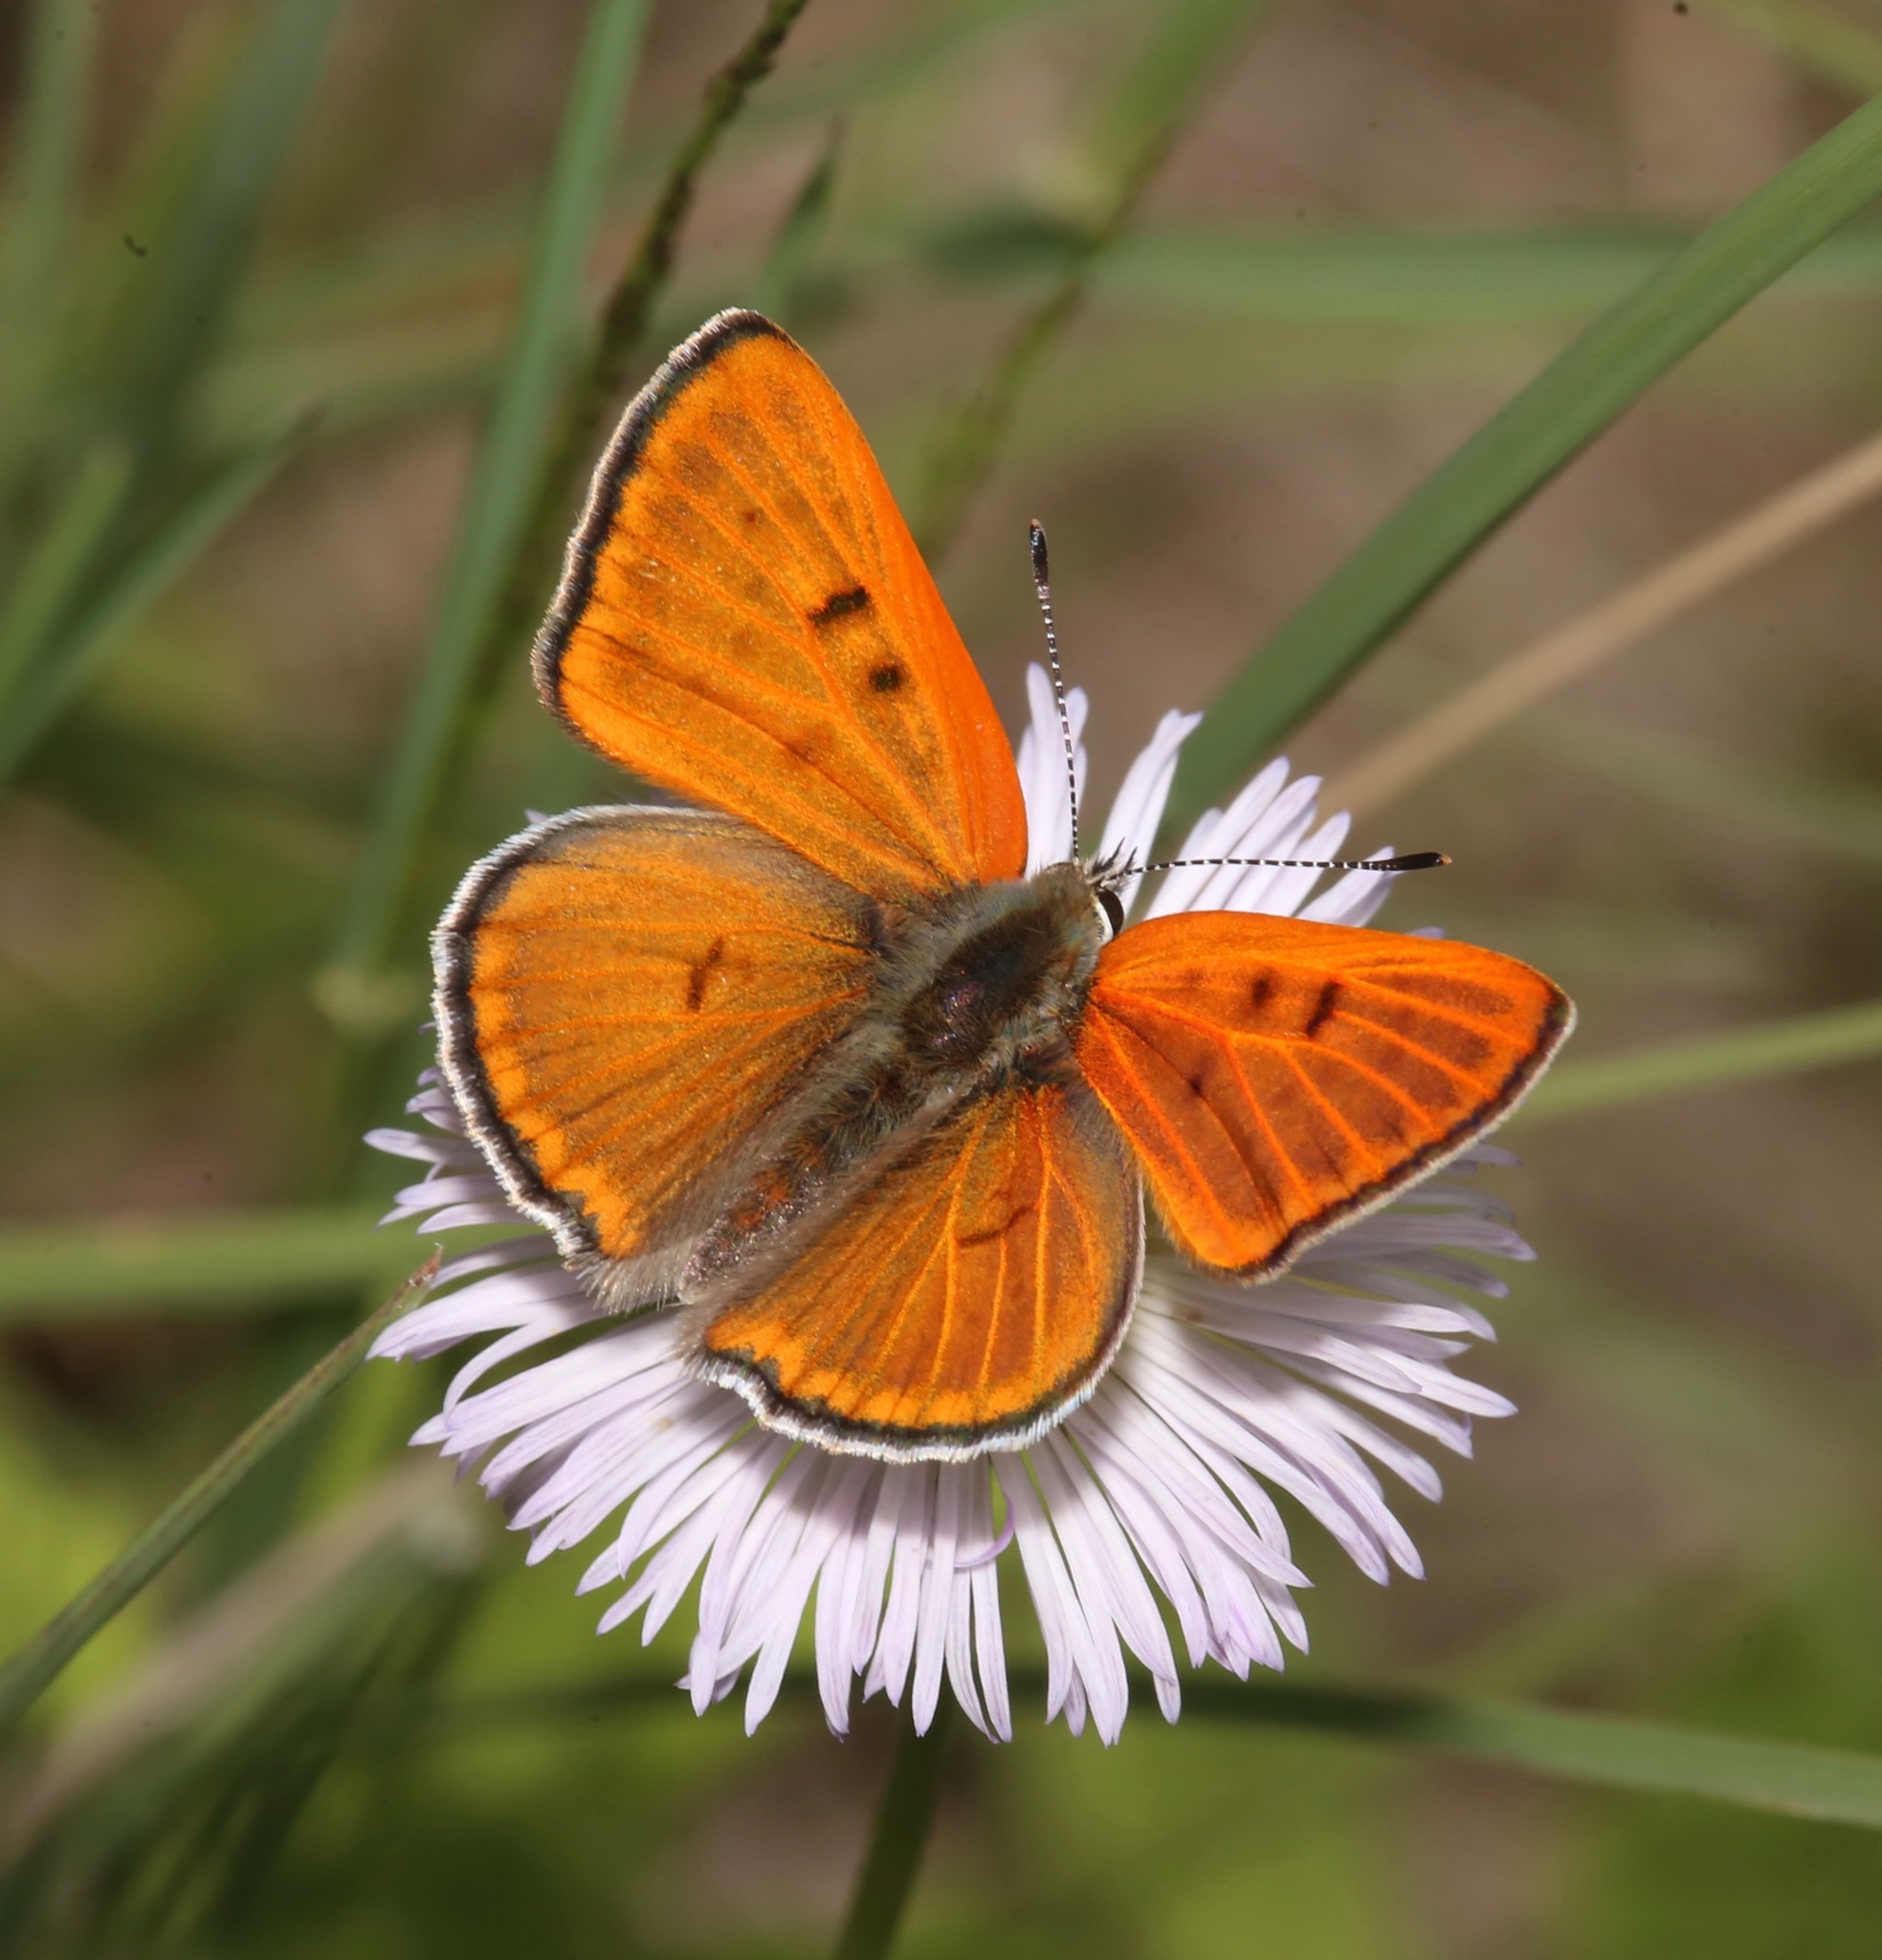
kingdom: Animalia
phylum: Arthropoda
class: Insecta
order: Lepidoptera
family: Lycaenidae
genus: Tharsalea
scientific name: Tharsalea rubidus
